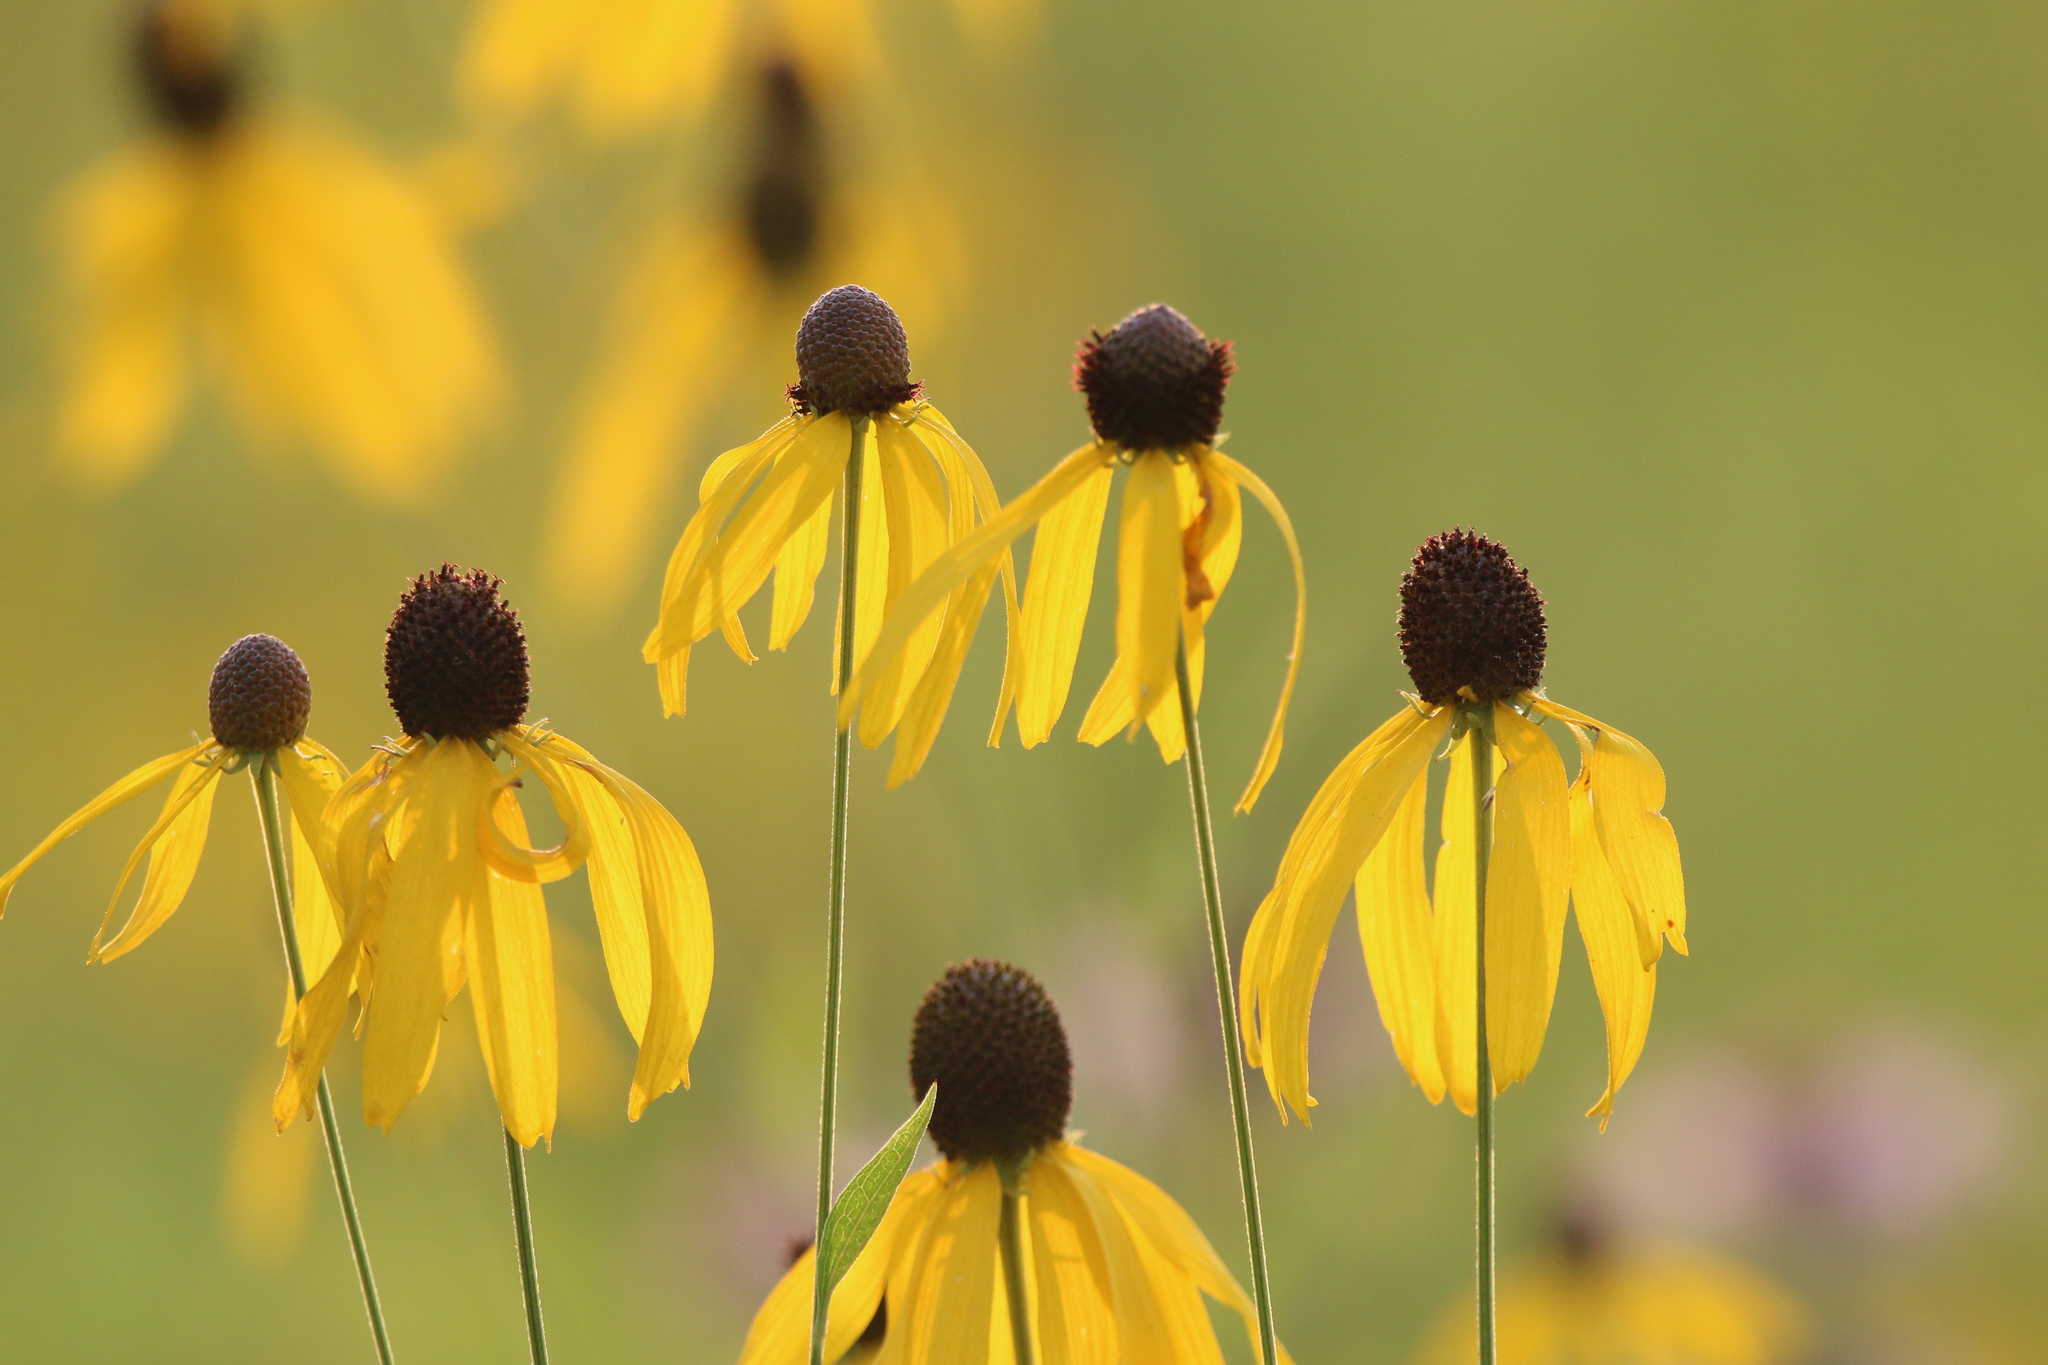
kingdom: Plantae
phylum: Tracheophyta
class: Magnoliopsida
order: Asterales
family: Asteraceae
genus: Ratibida
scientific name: Ratibida pinnata
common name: Drooping prairie-coneflower
